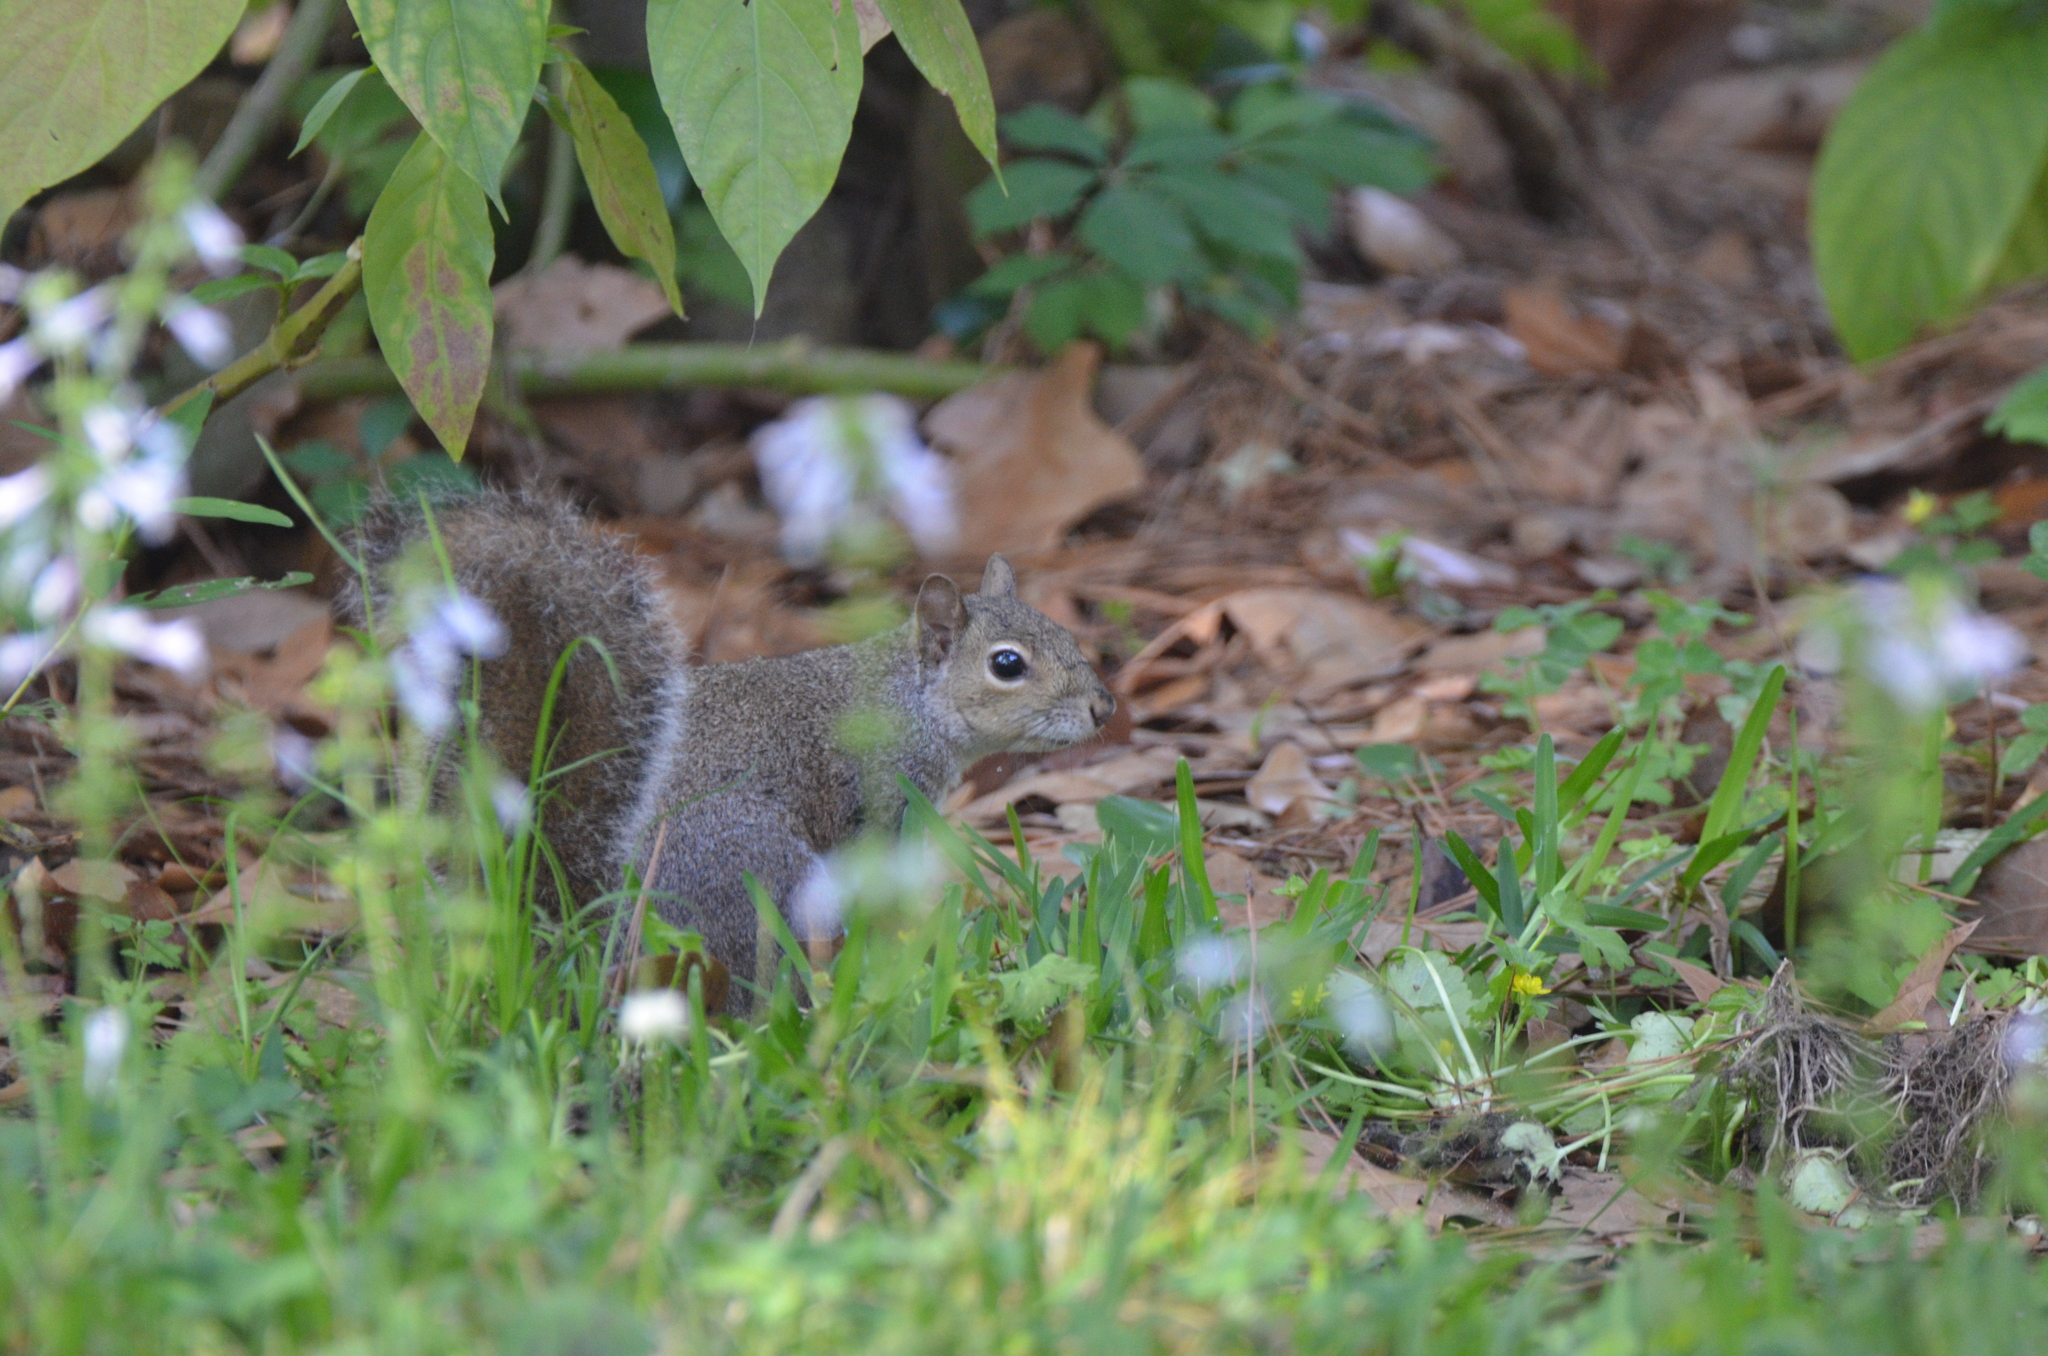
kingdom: Animalia
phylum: Chordata
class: Mammalia
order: Rodentia
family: Sciuridae
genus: Sciurus
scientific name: Sciurus carolinensis
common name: Eastern gray squirrel
